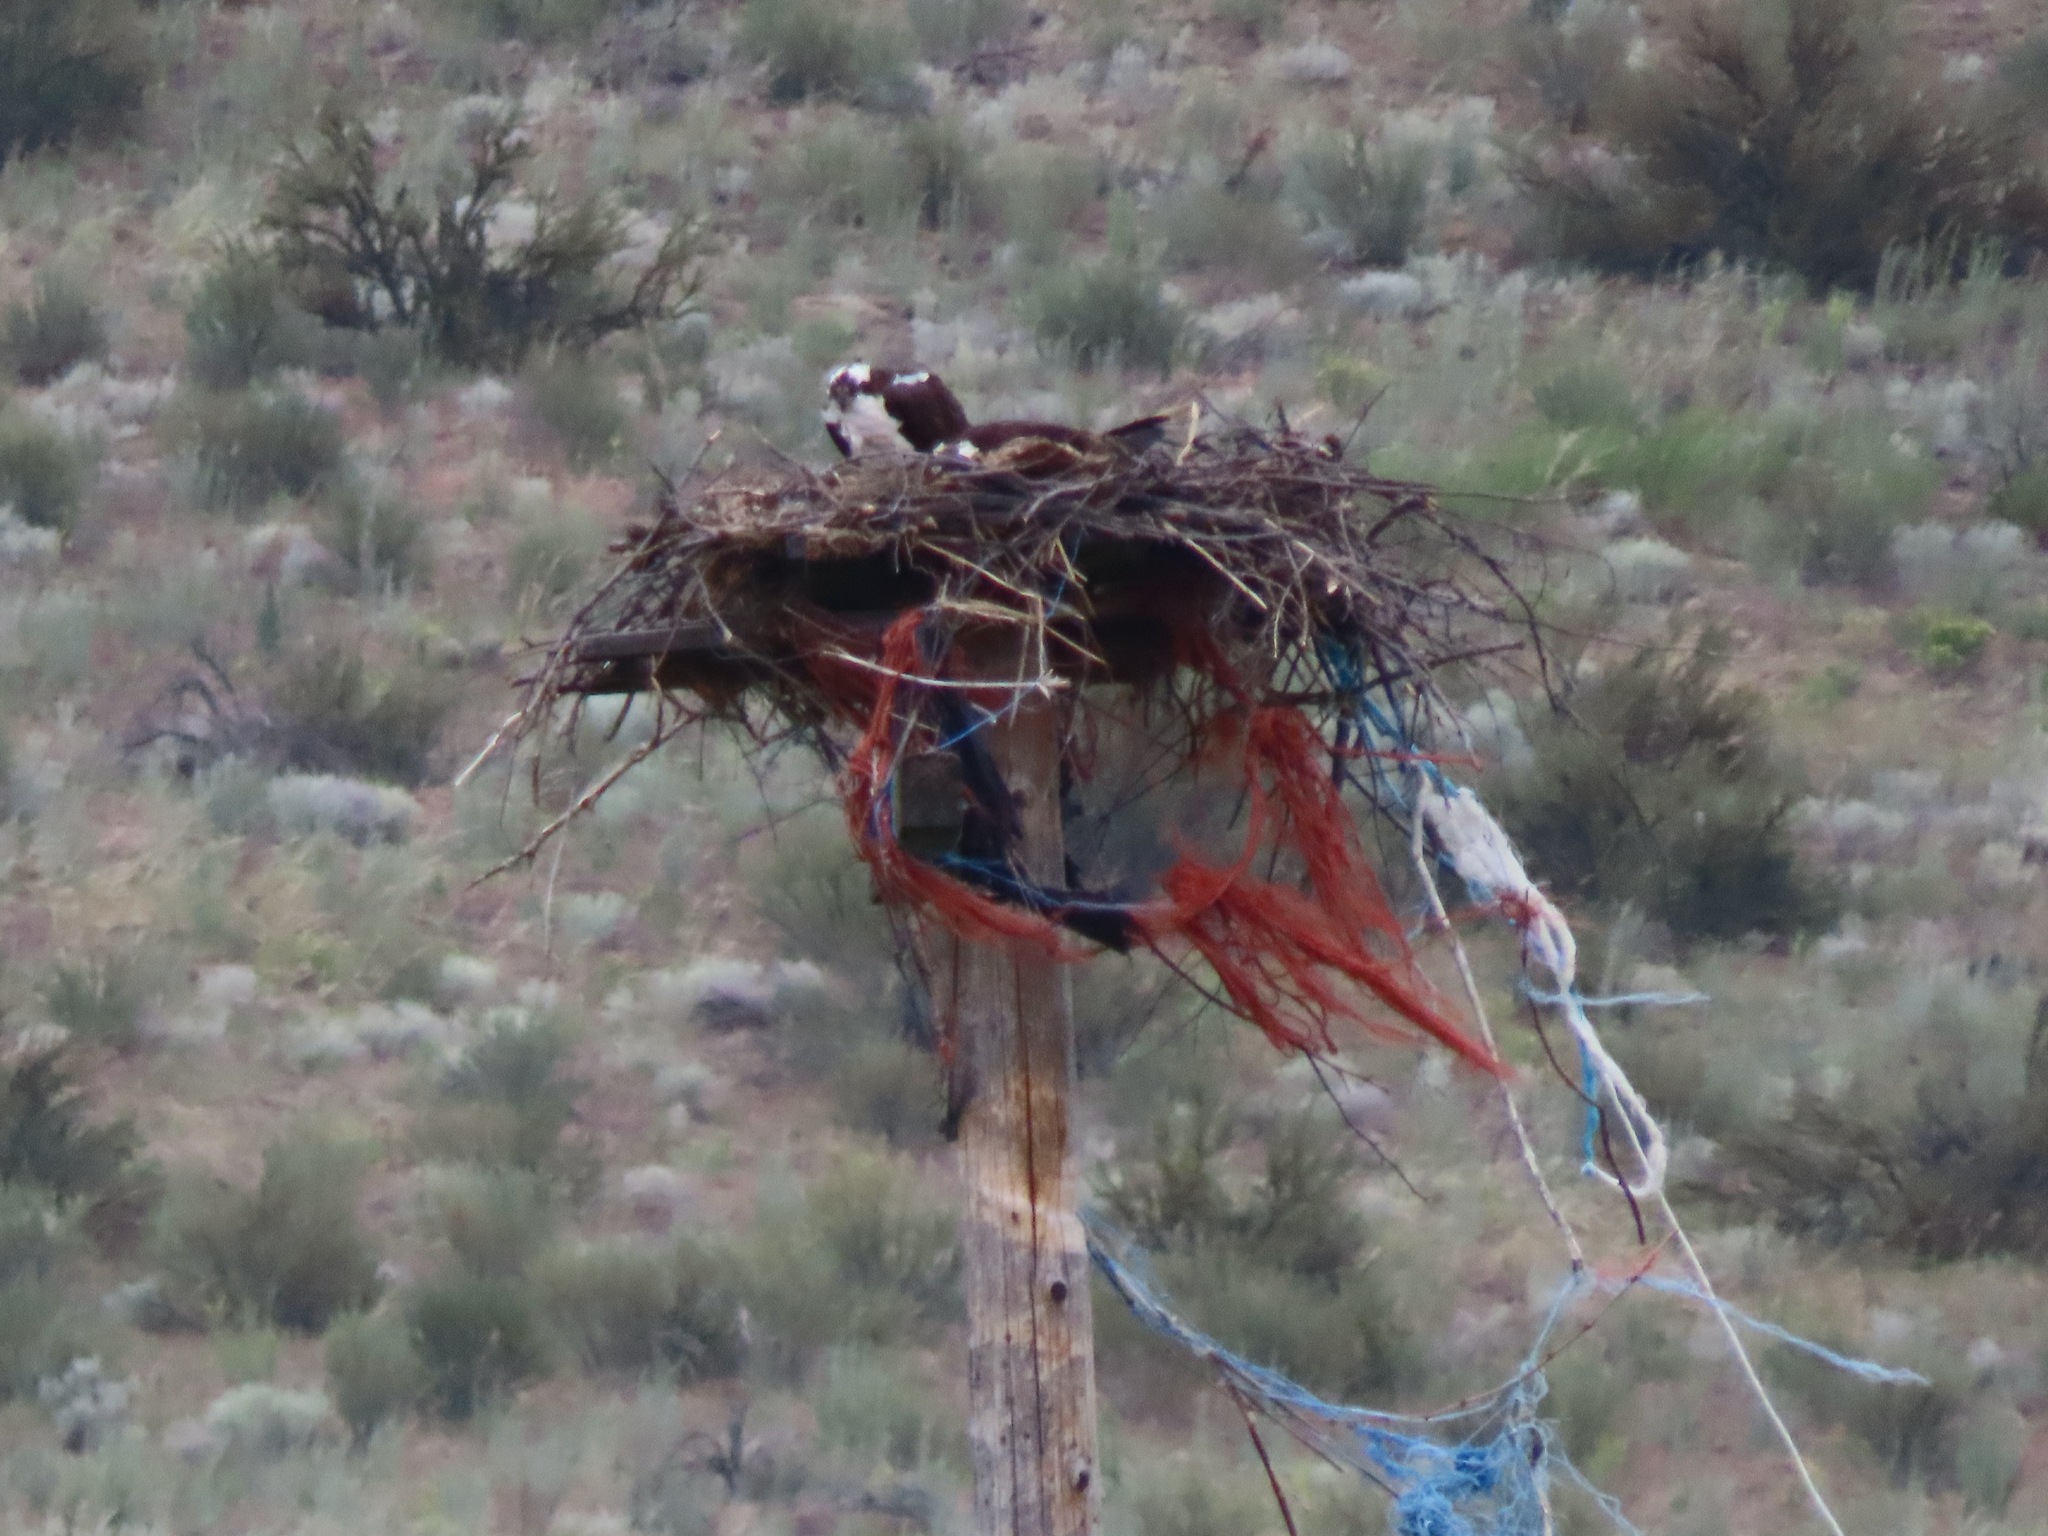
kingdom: Animalia
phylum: Chordata
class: Aves
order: Accipitriformes
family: Pandionidae
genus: Pandion
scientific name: Pandion haliaetus
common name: Osprey
